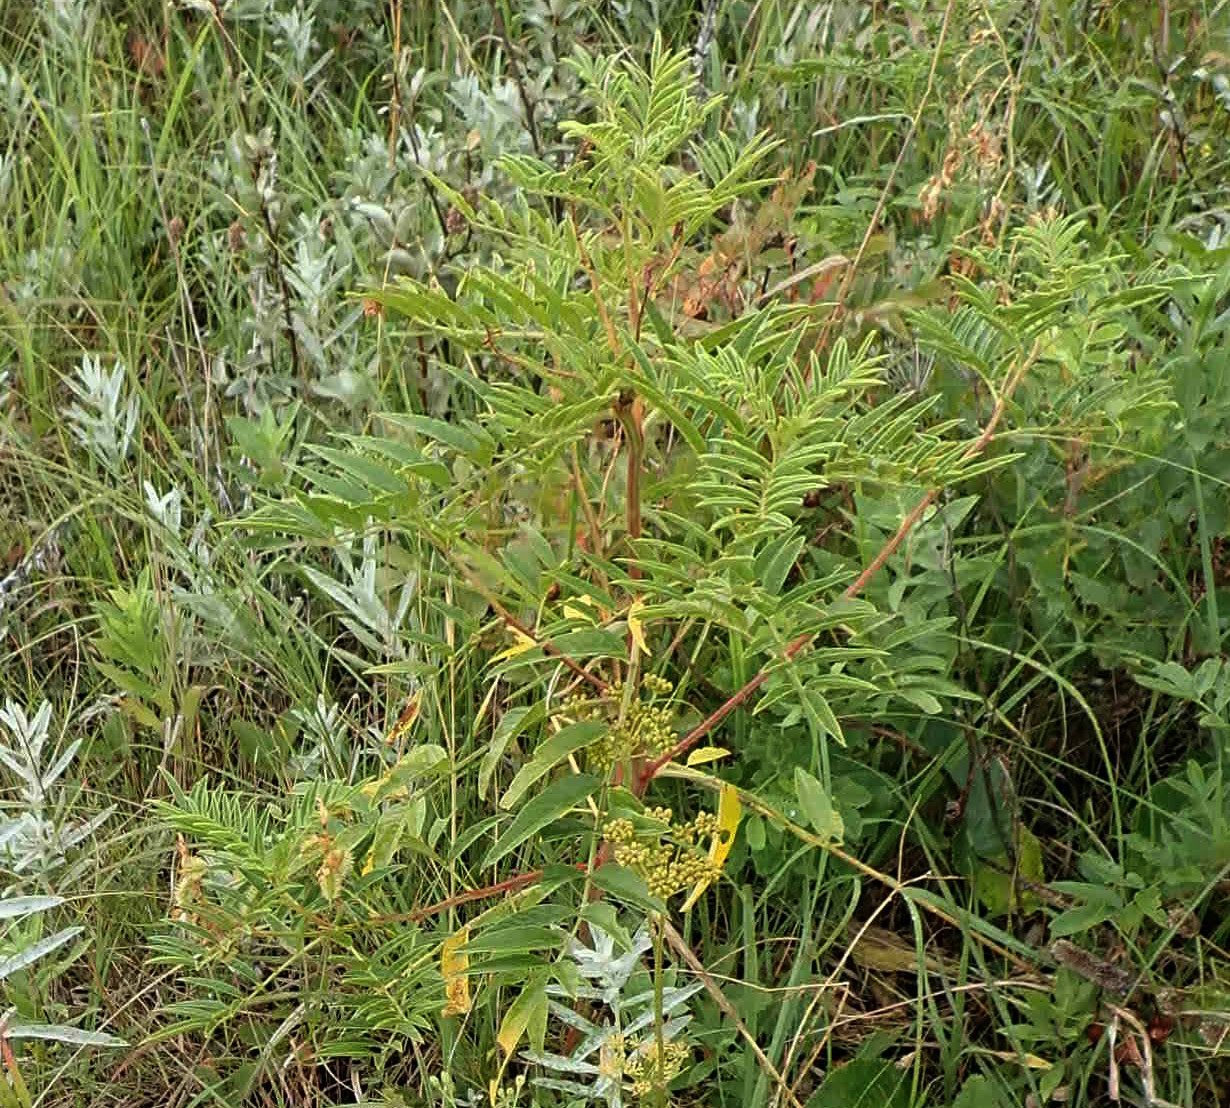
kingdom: Plantae
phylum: Tracheophyta
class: Magnoliopsida
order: Fabales
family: Fabaceae
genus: Glycyrrhiza
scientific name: Glycyrrhiza lepidota
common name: American liquorice
